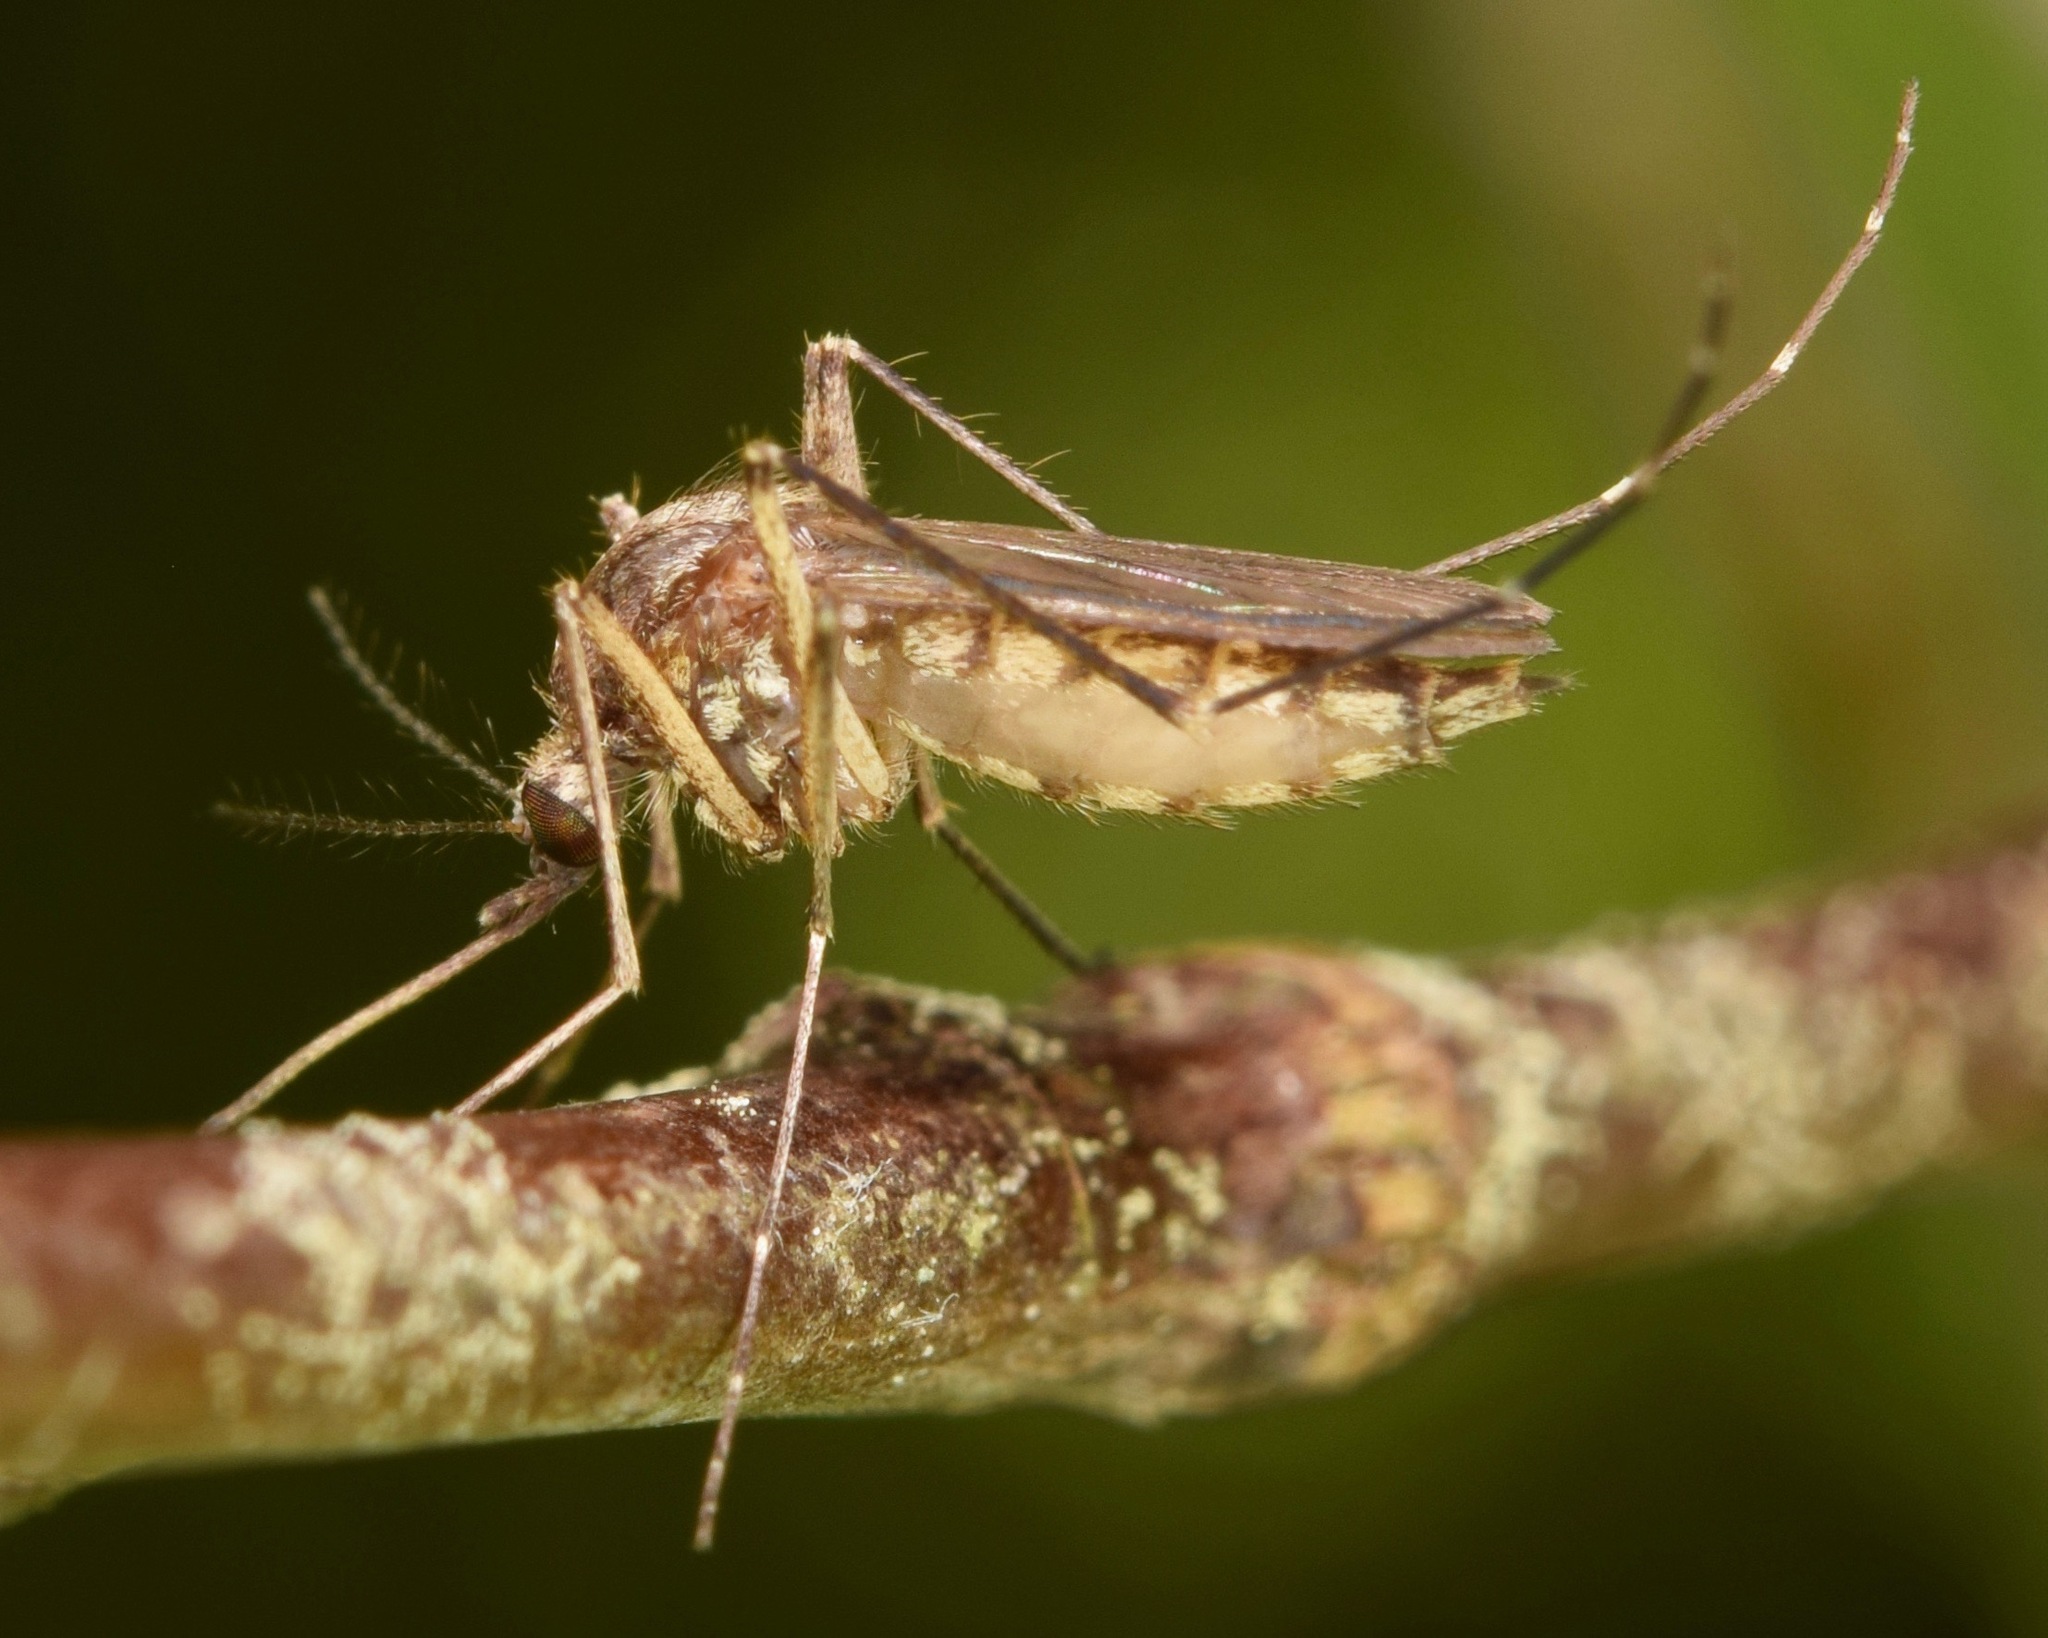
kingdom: Animalia
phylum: Arthropoda
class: Insecta
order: Diptera
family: Culicidae
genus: Aedes
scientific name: Aedes vexans
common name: Inland floodwater mosquito
